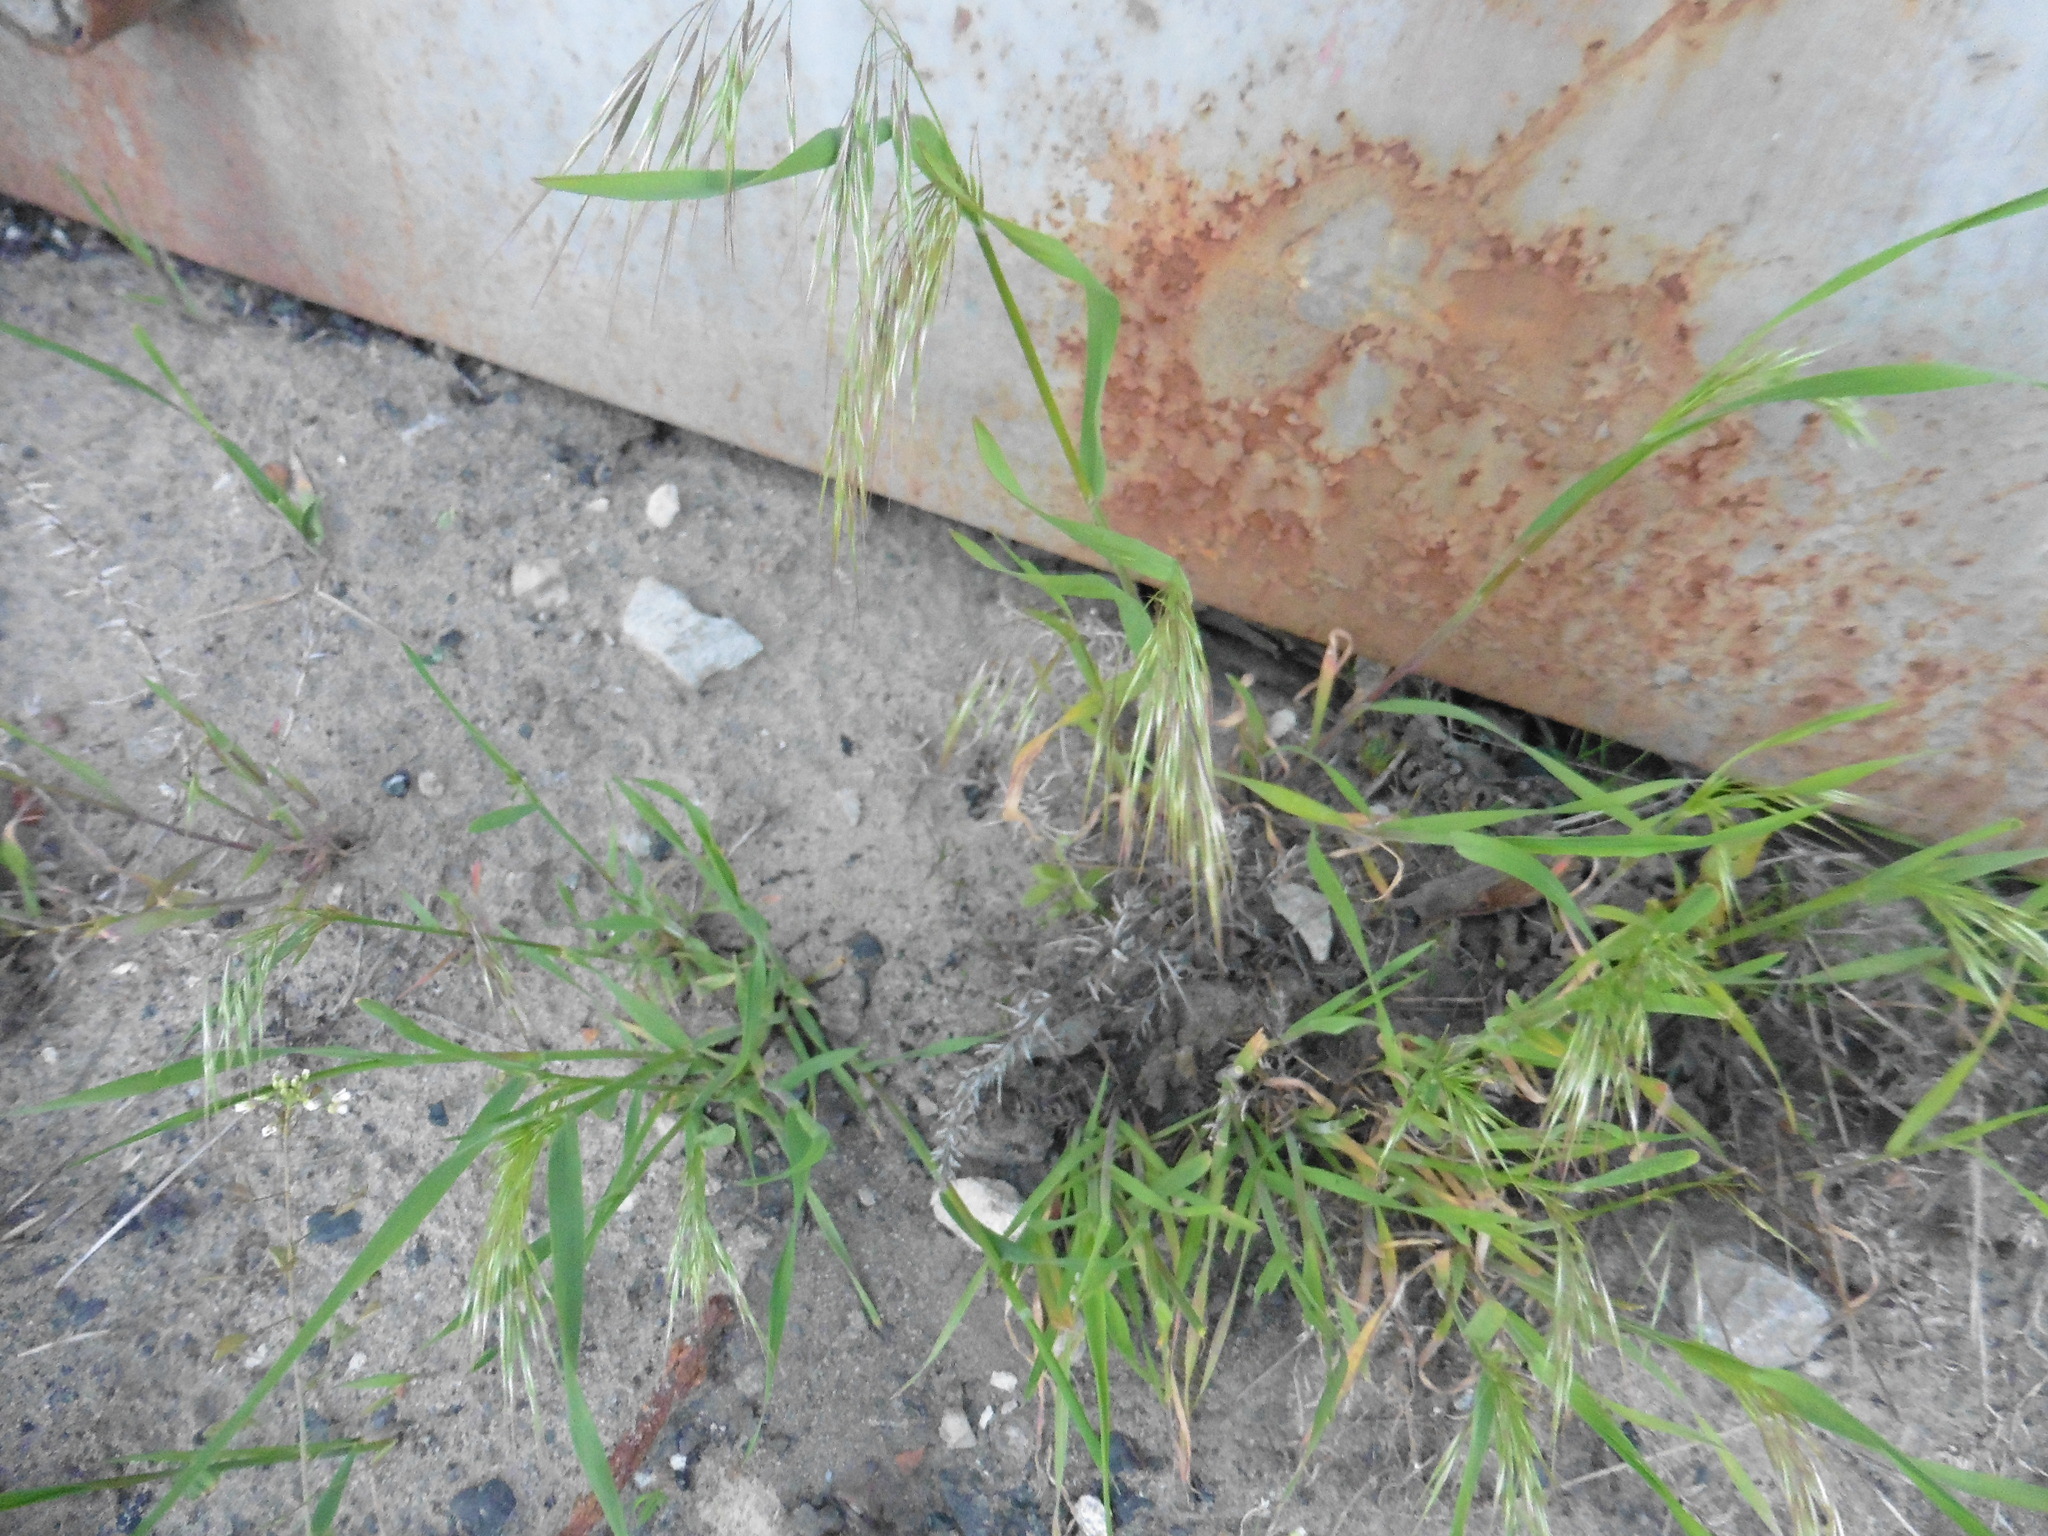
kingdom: Plantae
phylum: Tracheophyta
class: Liliopsida
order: Poales
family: Poaceae
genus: Bromus
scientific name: Bromus tectorum
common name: Cheatgrass
